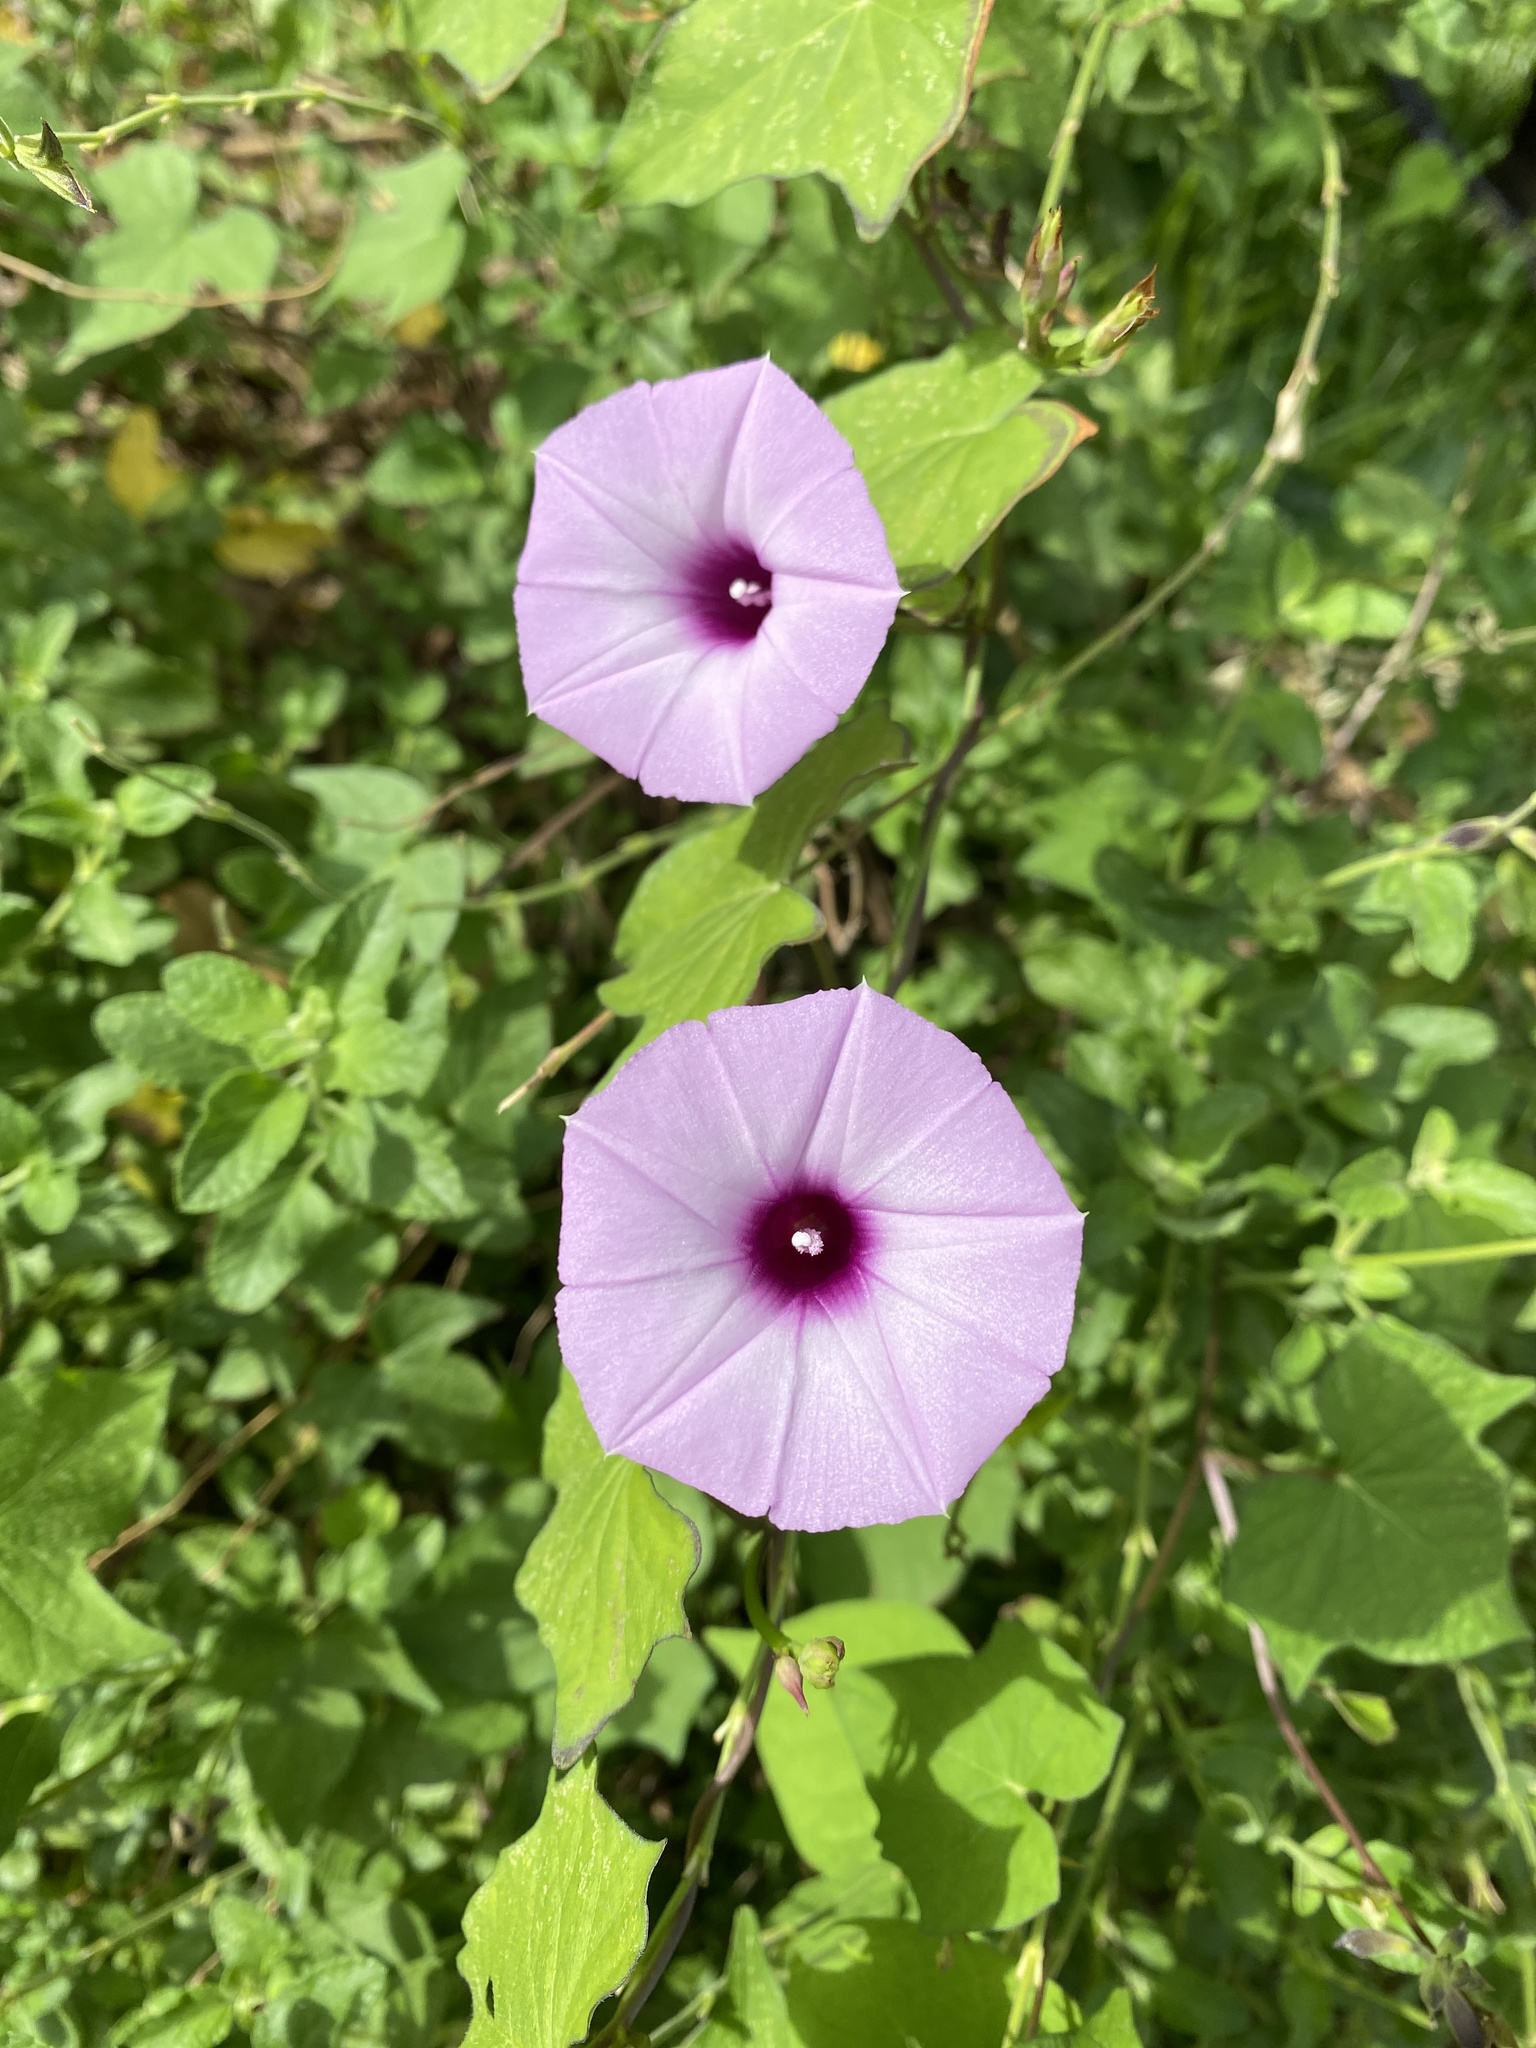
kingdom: Plantae
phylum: Tracheophyta
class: Magnoliopsida
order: Solanales
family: Convolvulaceae
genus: Ipomoea
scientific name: Ipomoea cordatotriloba
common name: Cotton morning glory
